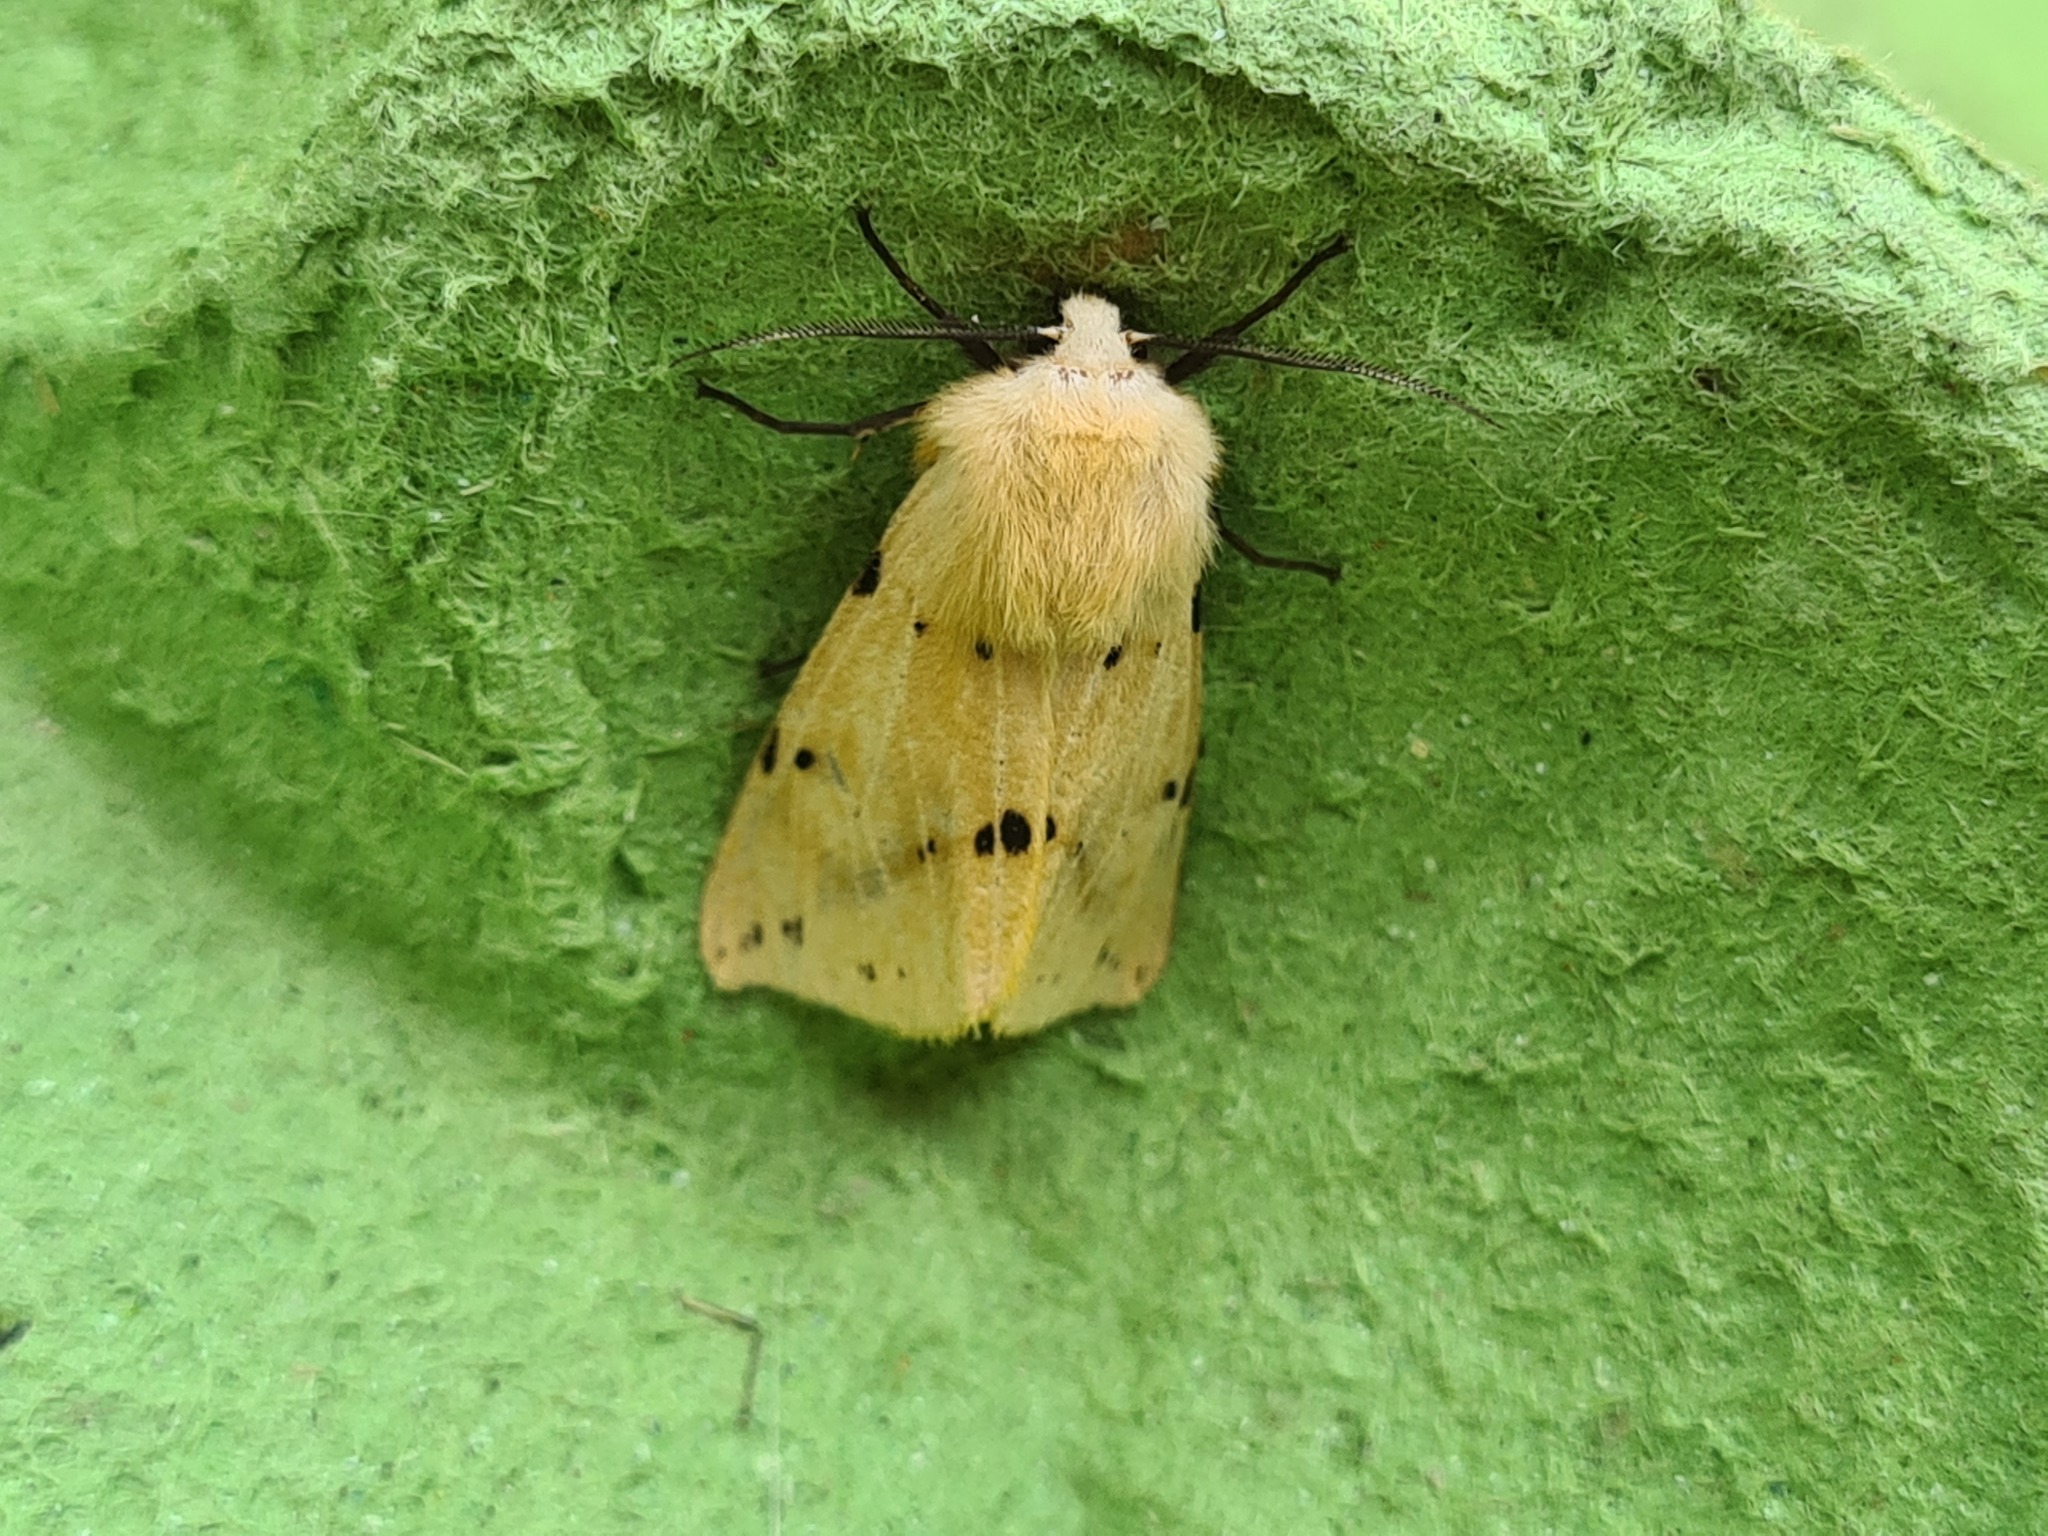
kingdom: Animalia
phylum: Arthropoda
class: Insecta
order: Lepidoptera
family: Erebidae
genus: Spilarctia
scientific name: Spilarctia lutea
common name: Buff ermine
